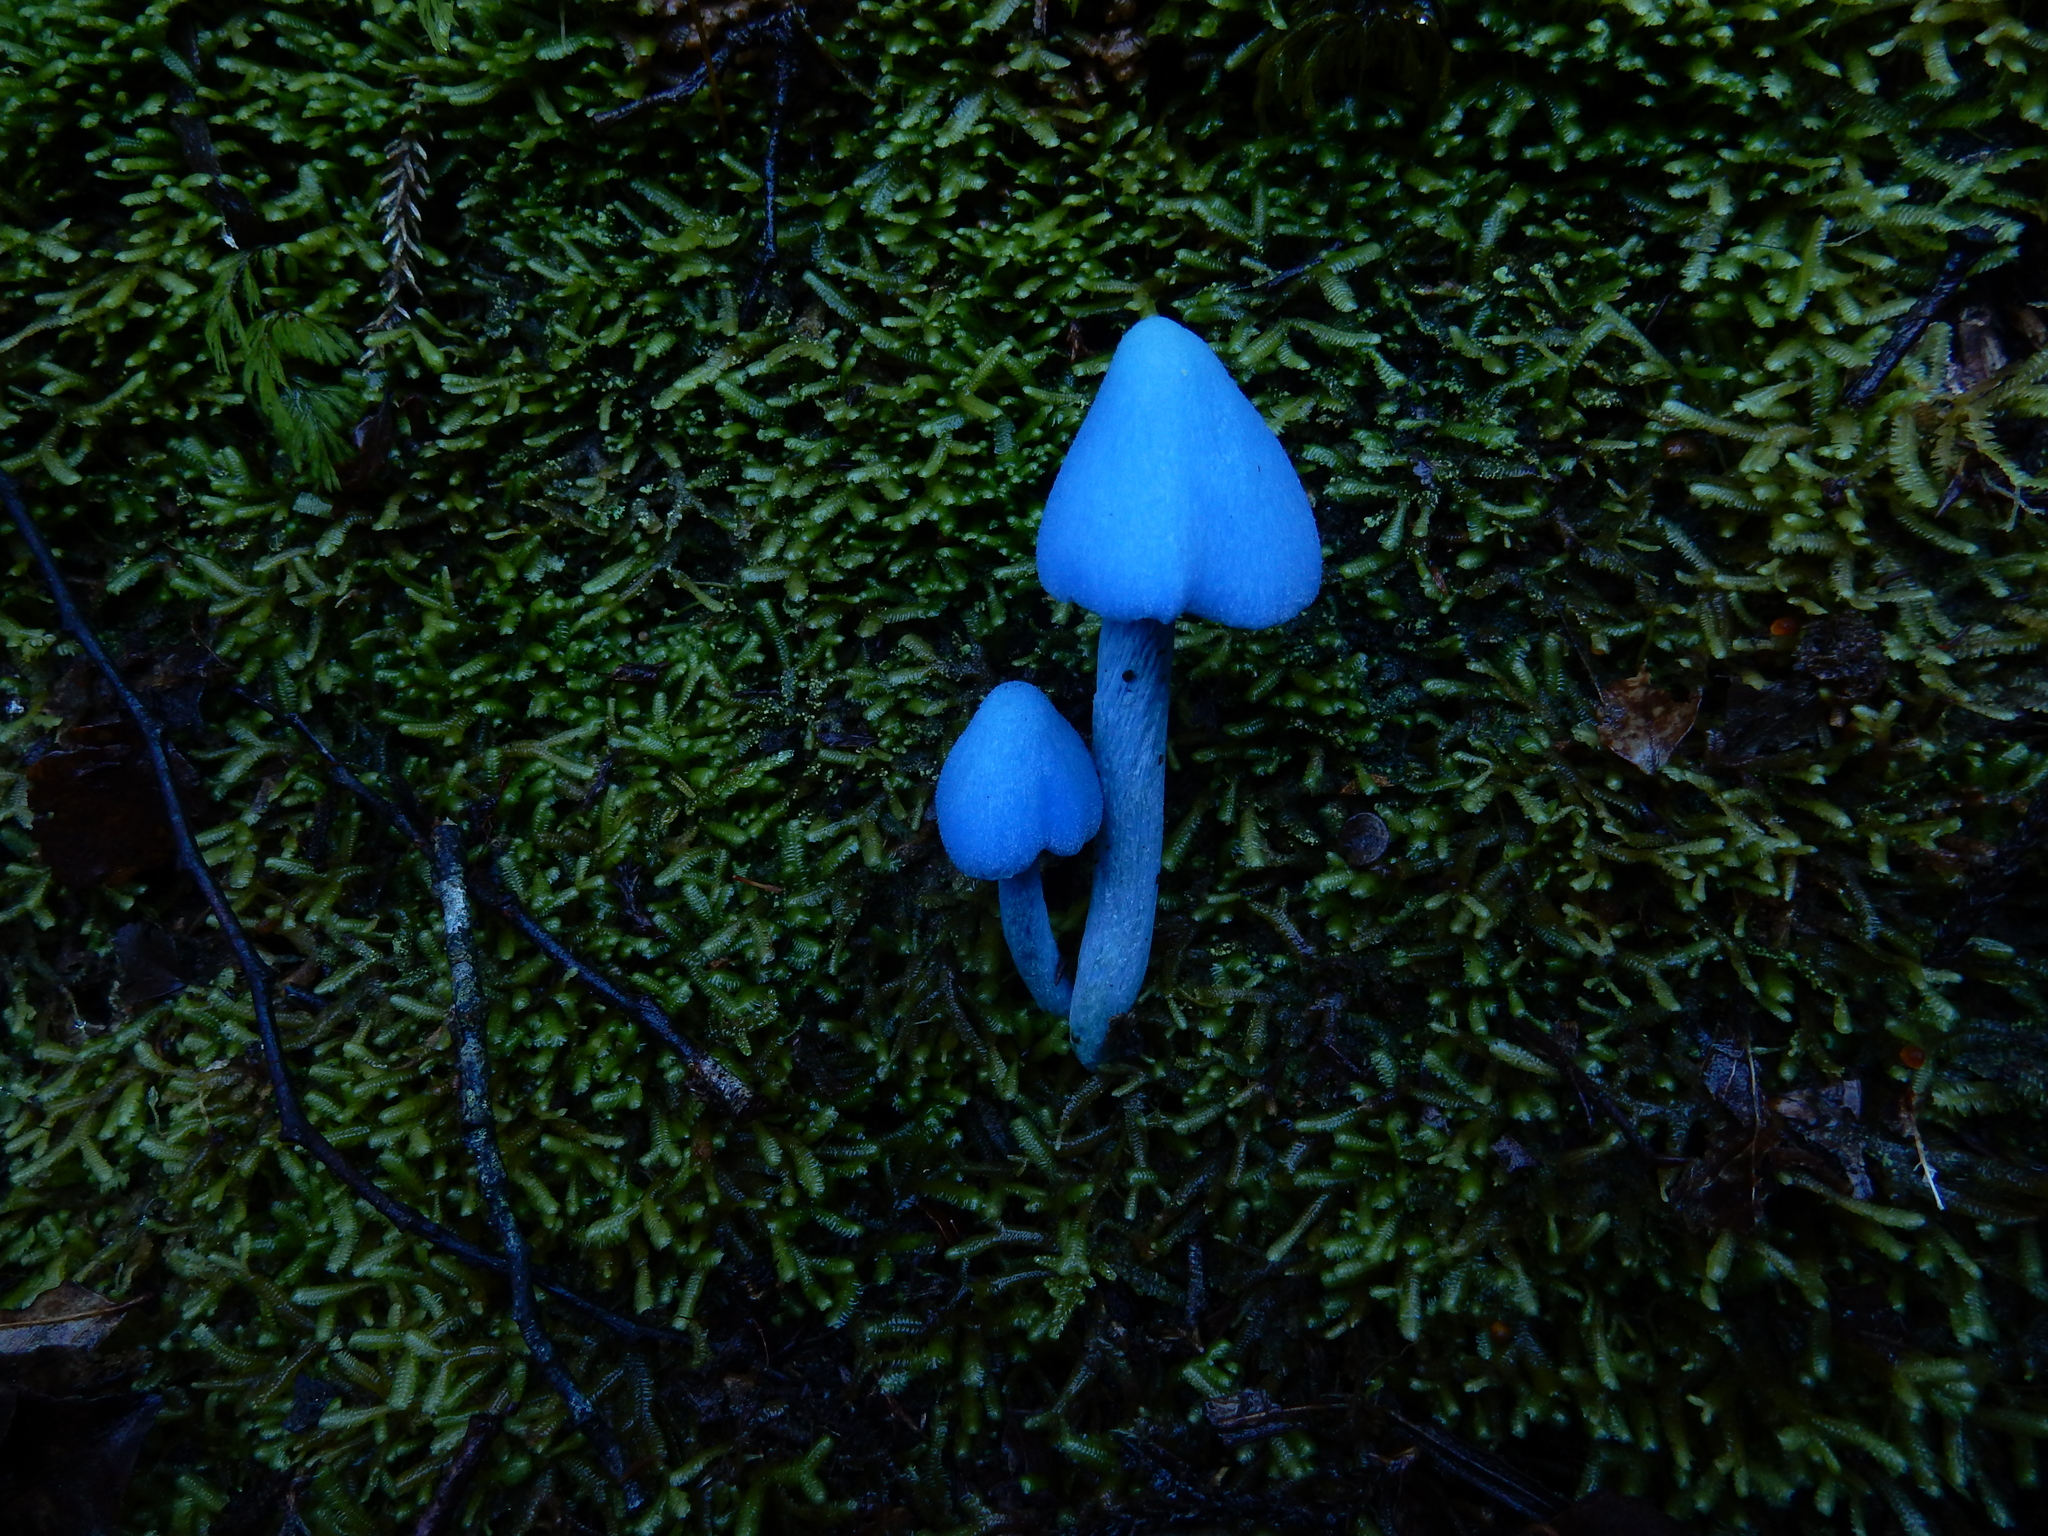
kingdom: Fungi
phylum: Basidiomycota
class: Agaricomycetes
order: Agaricales
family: Entolomataceae
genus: Entoloma
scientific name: Entoloma hochstetteri
